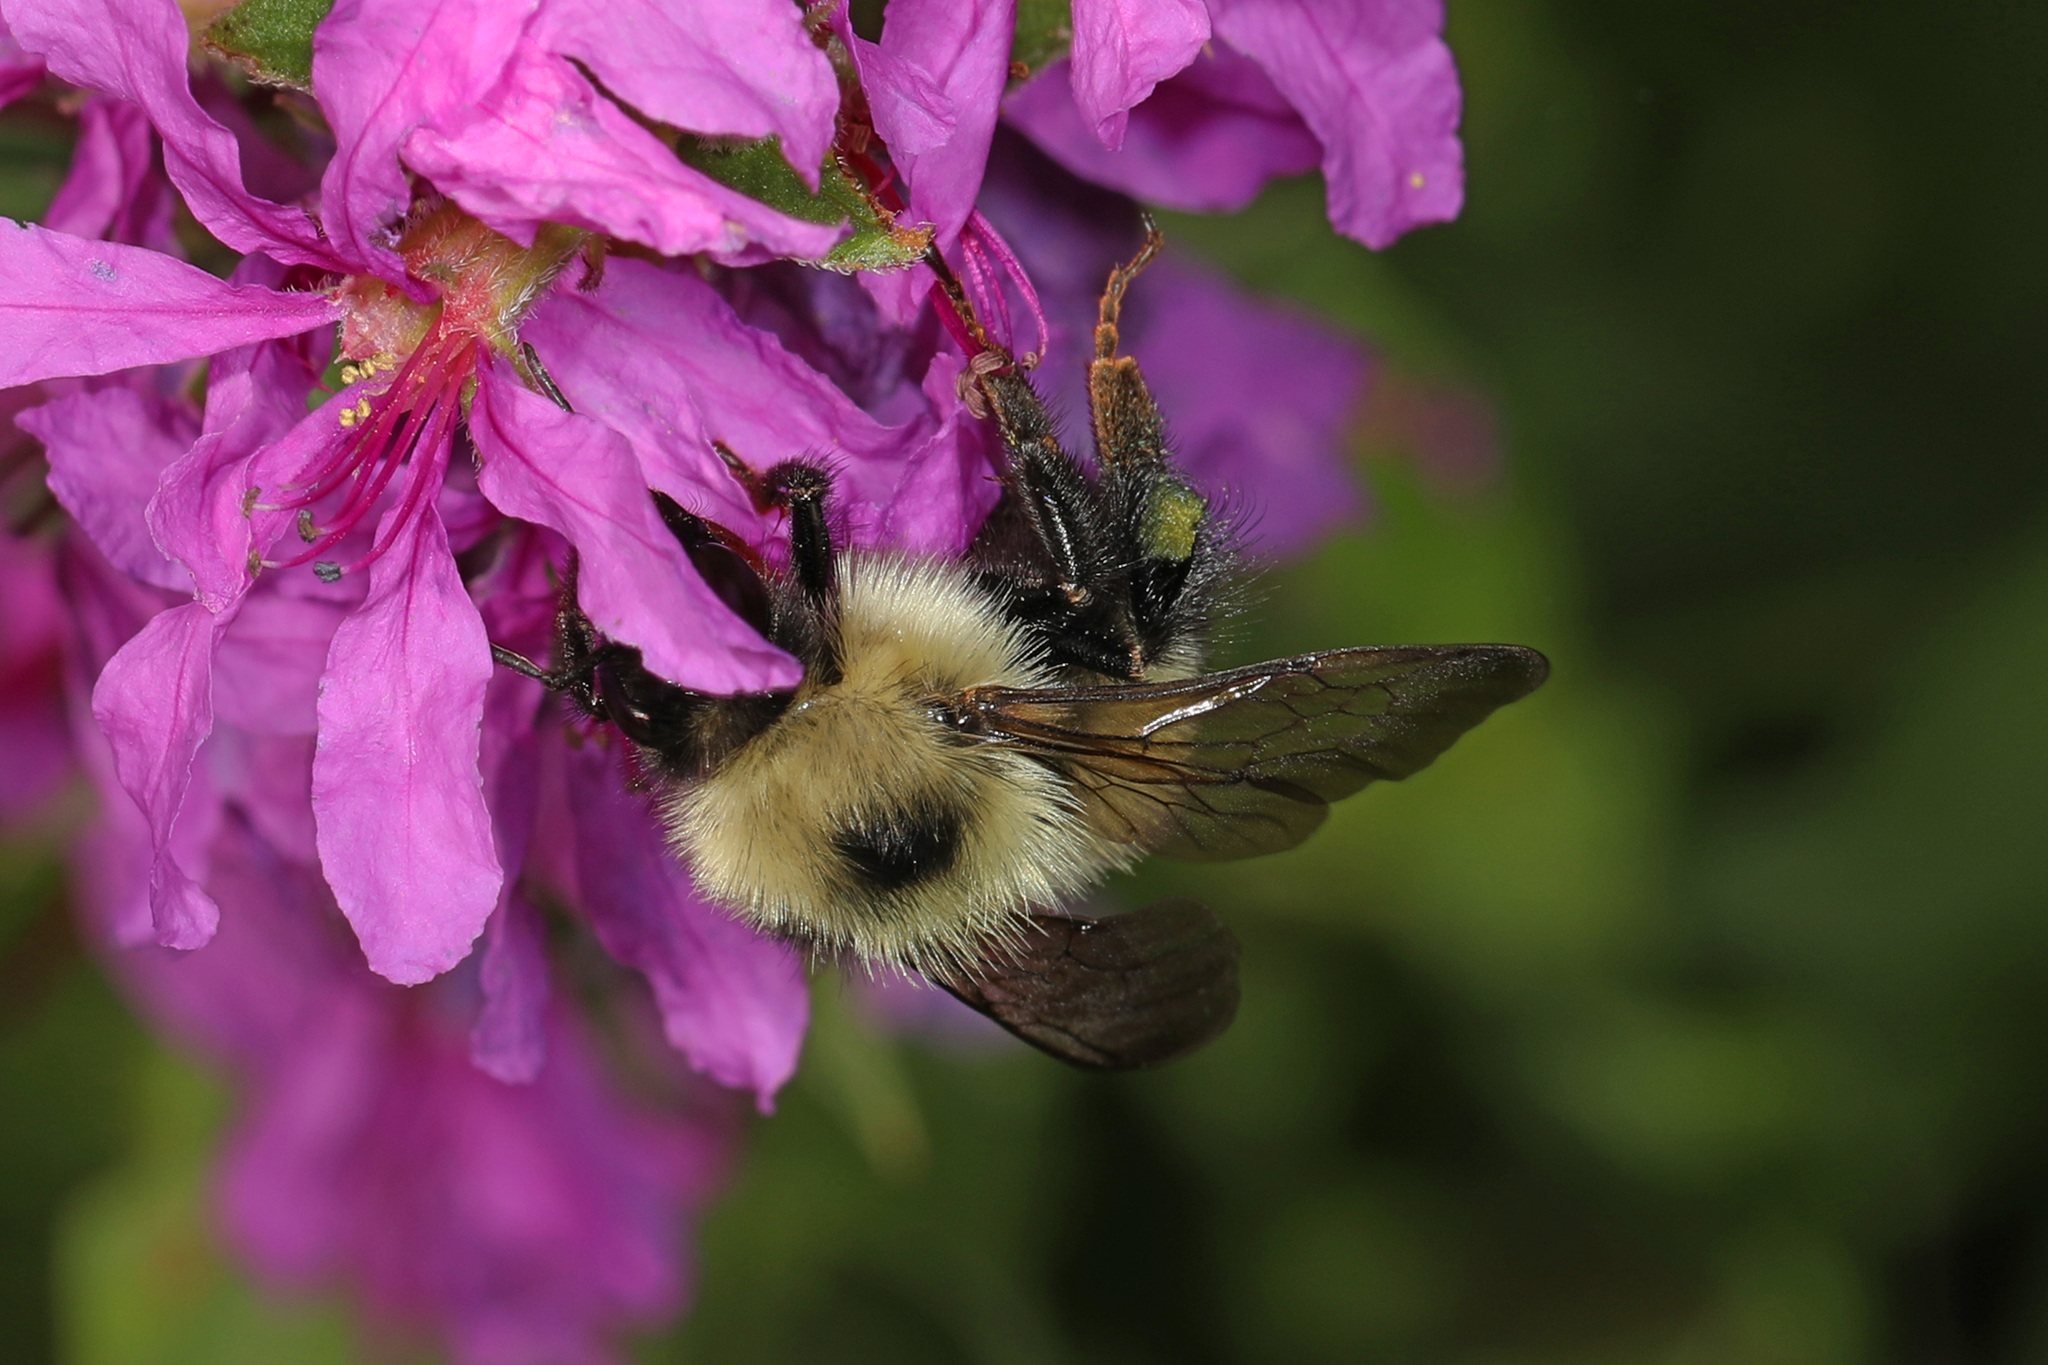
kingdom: Animalia
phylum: Arthropoda
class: Insecta
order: Hymenoptera
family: Apidae
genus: Bombus
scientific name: Bombus vagans
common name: Half-black bumble bee
